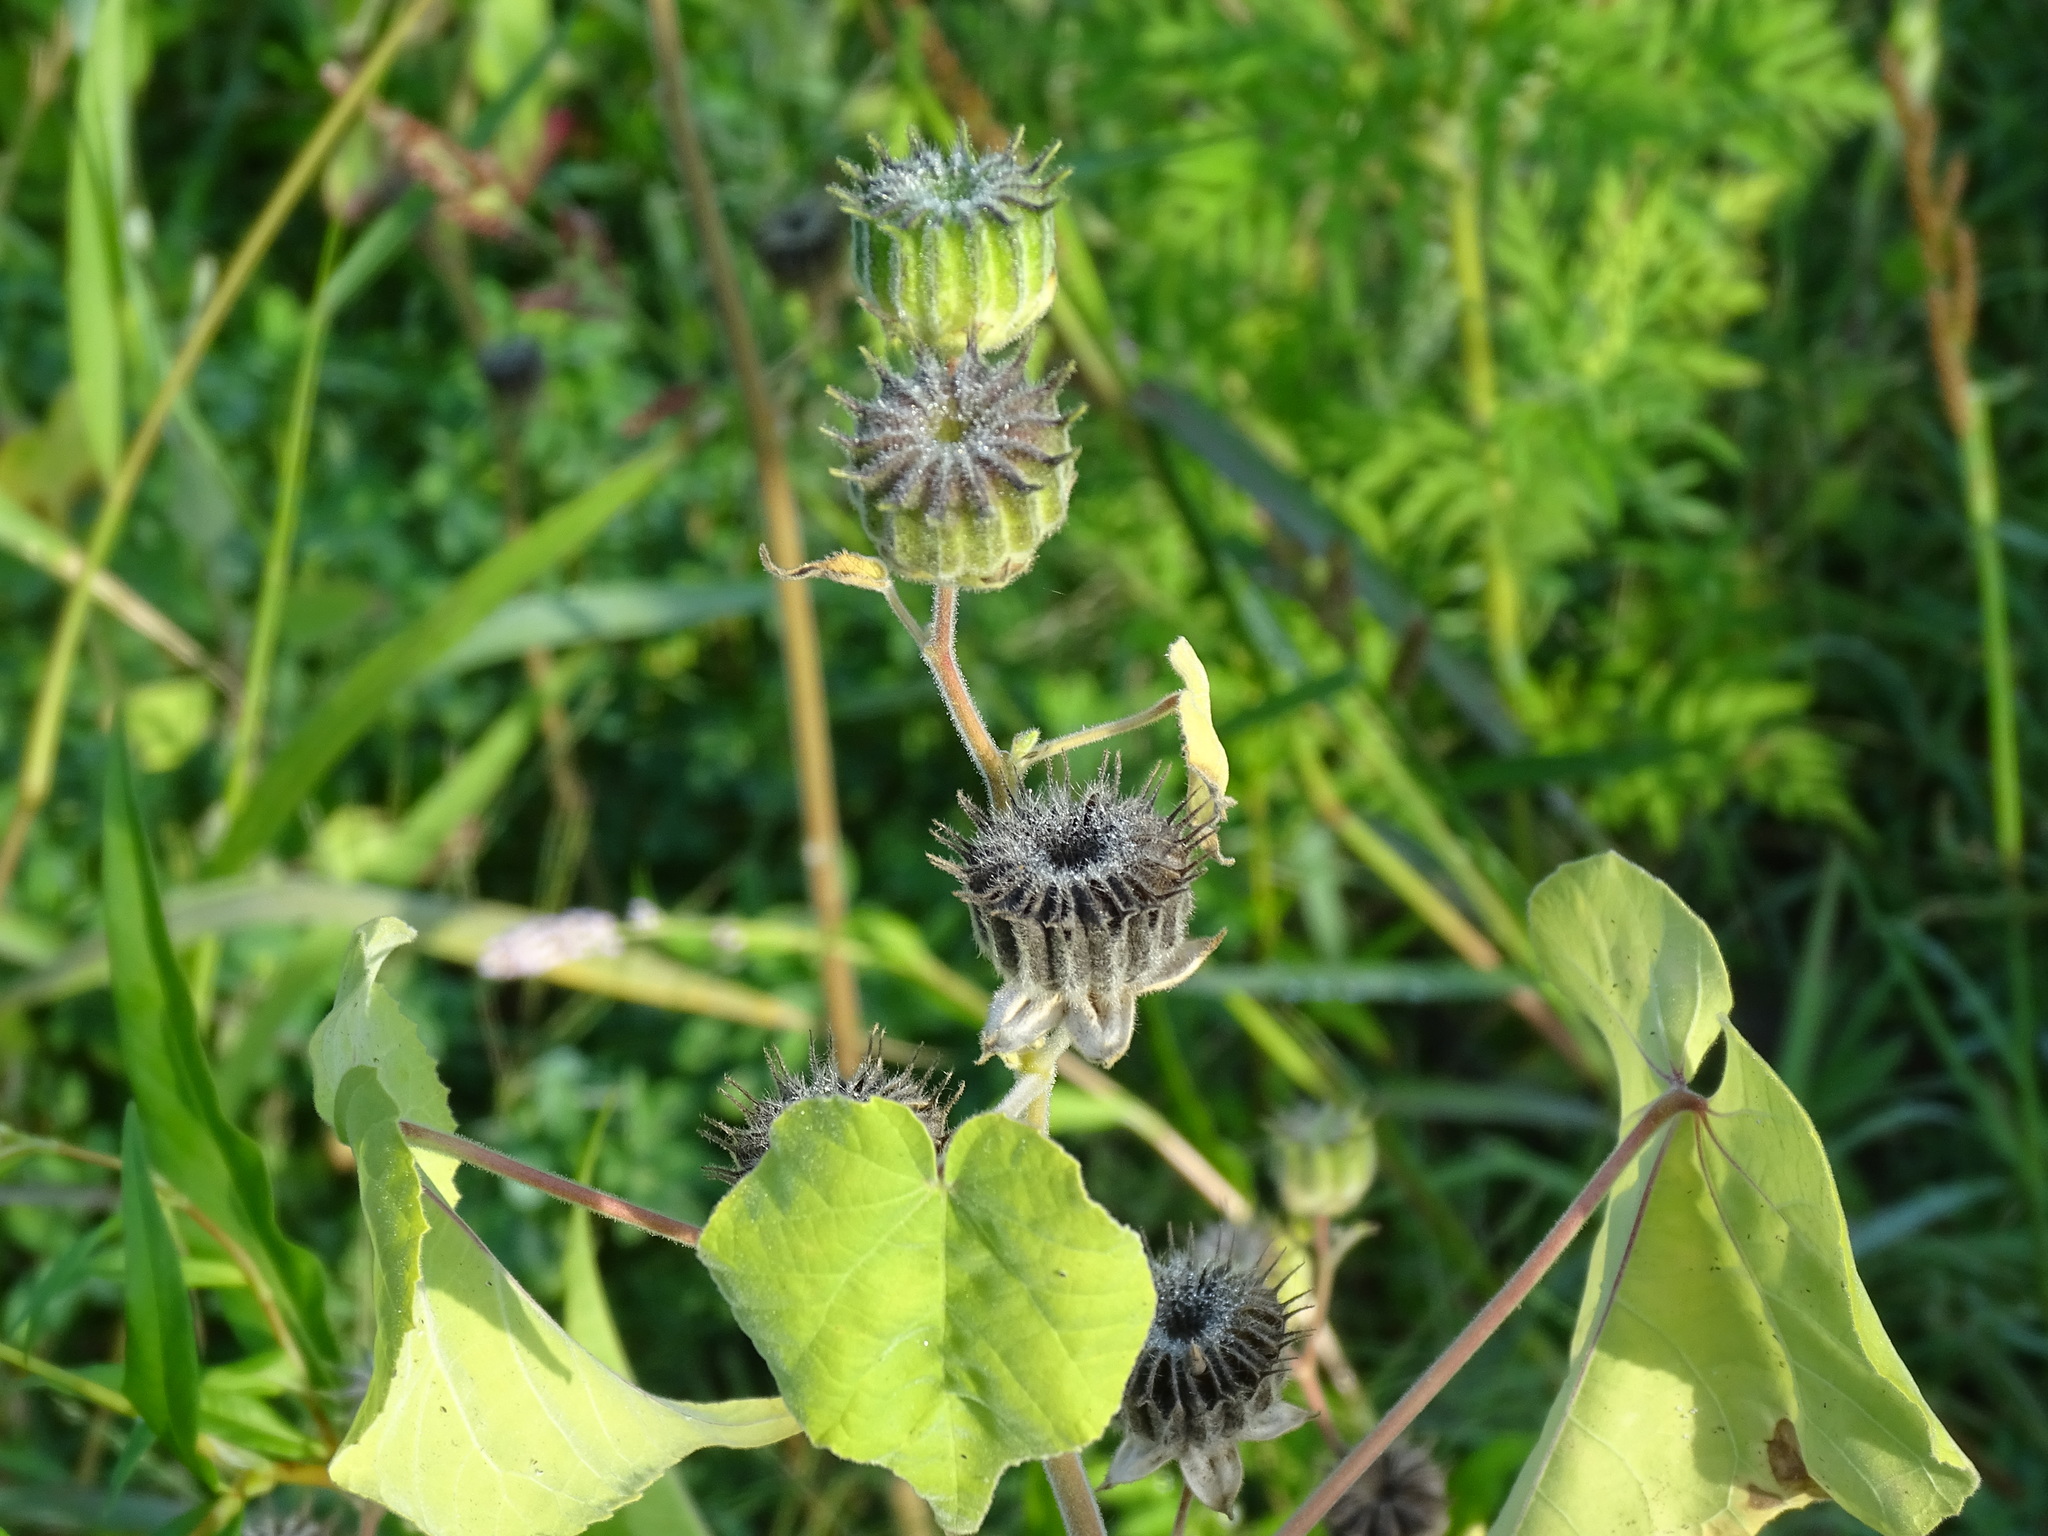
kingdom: Plantae
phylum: Tracheophyta
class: Magnoliopsida
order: Malvales
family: Malvaceae
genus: Abutilon
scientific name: Abutilon theophrasti
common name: Velvetleaf
